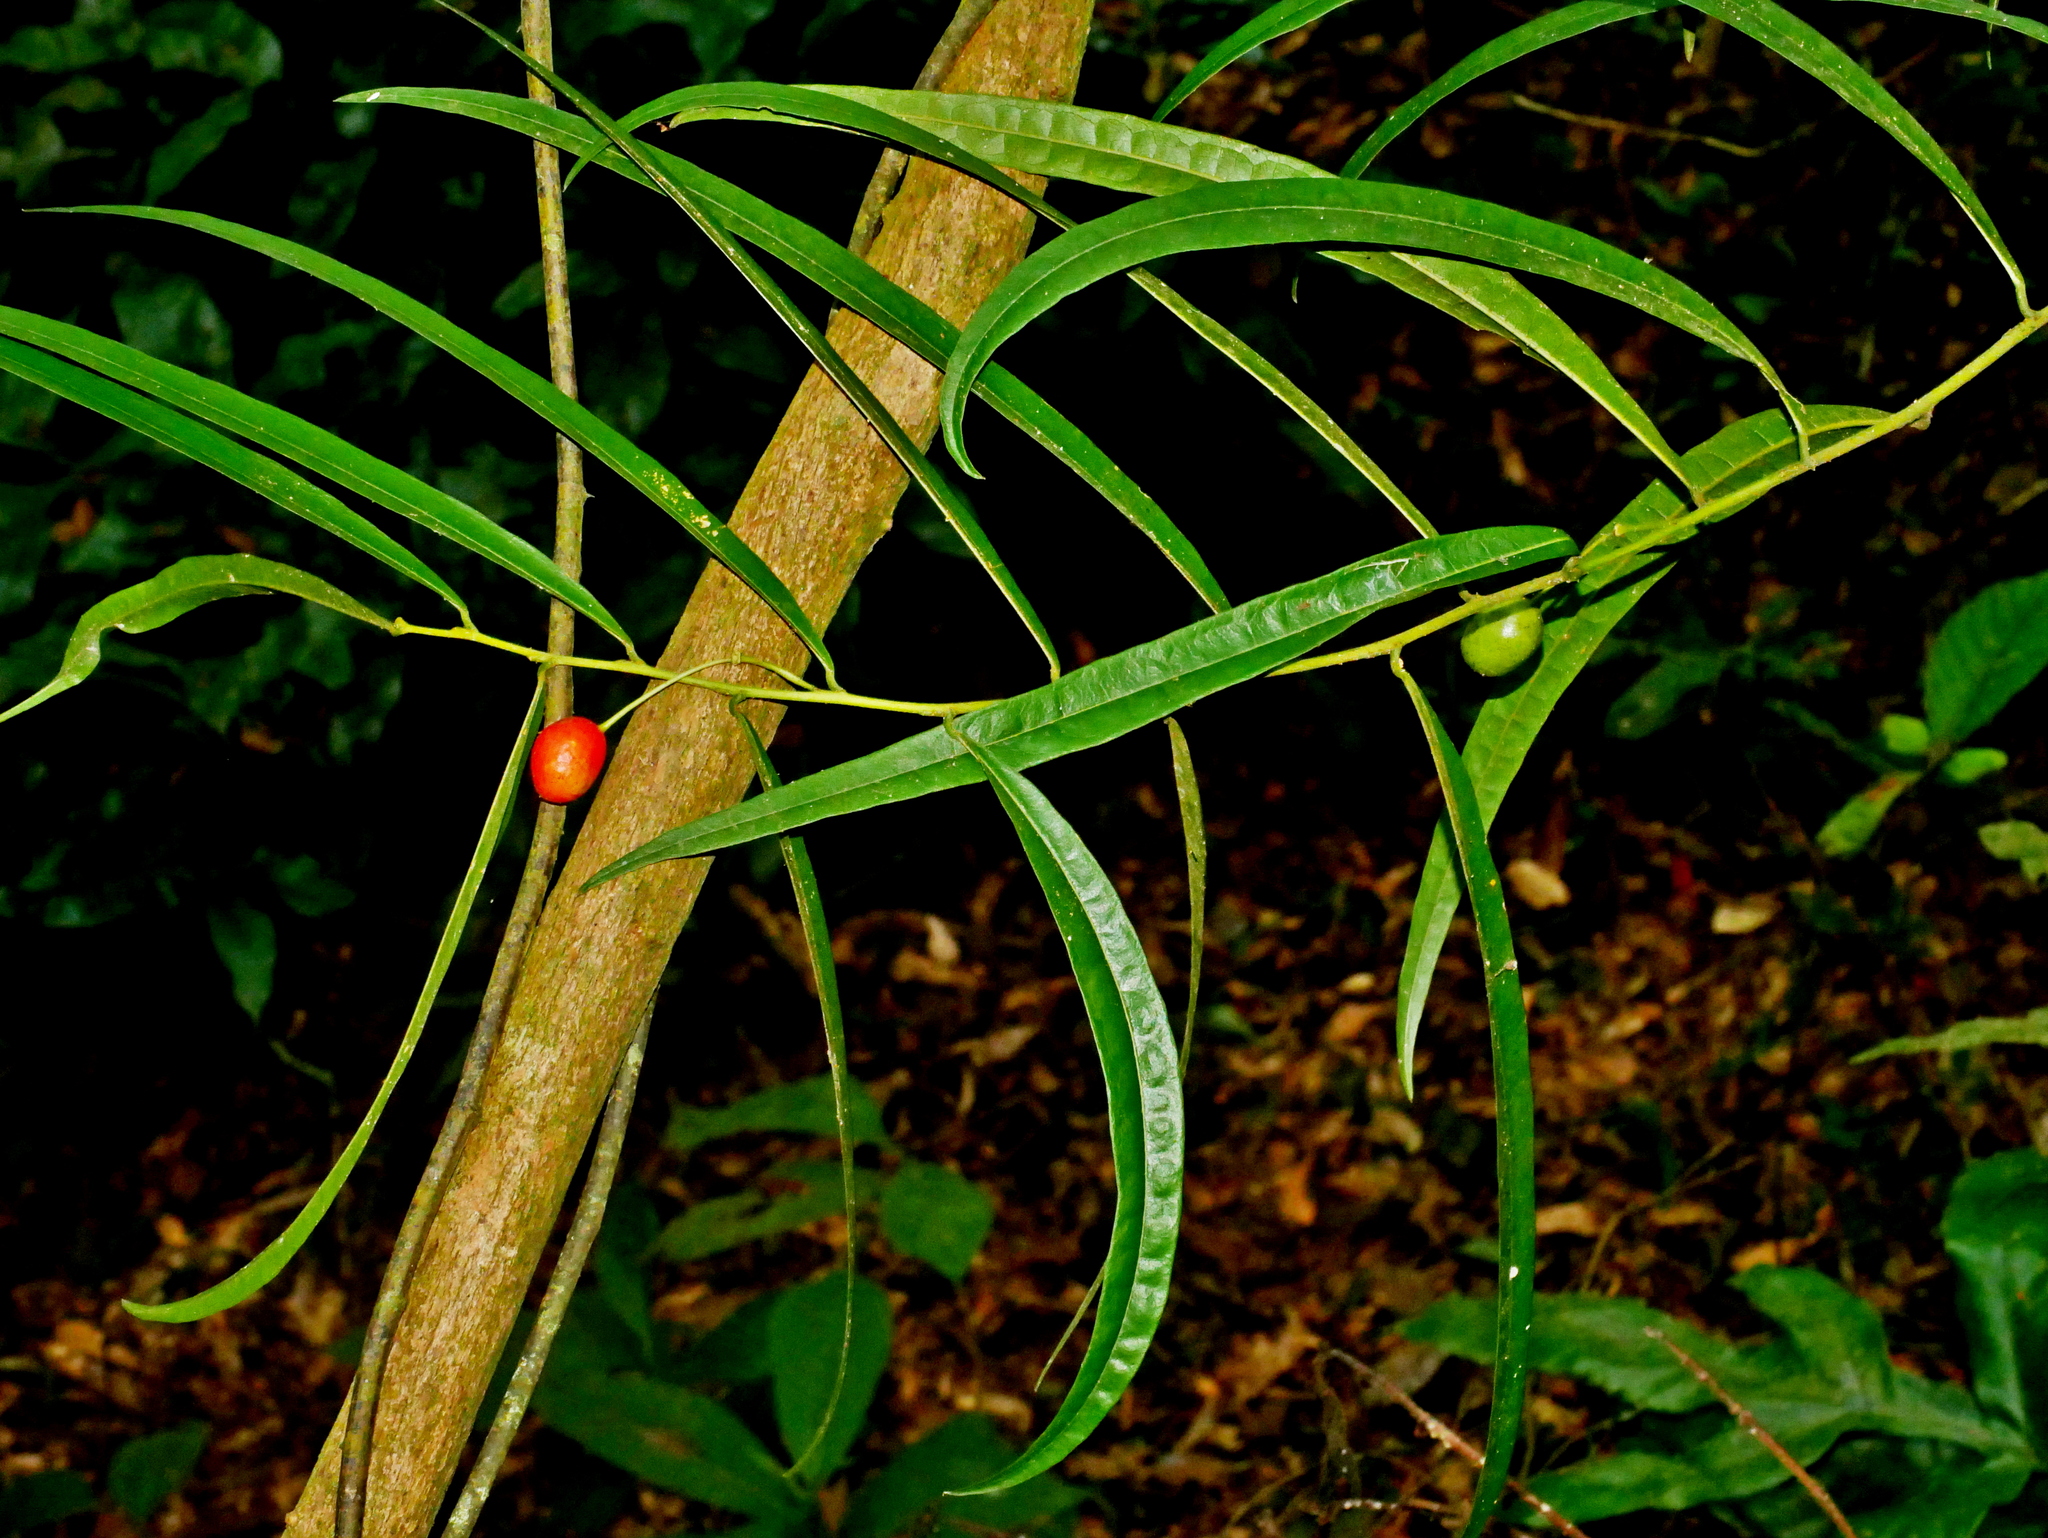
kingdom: Plantae
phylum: Tracheophyta
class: Magnoliopsida
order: Brassicales
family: Capparaceae
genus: Capparis
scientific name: Capparis acutifolia
